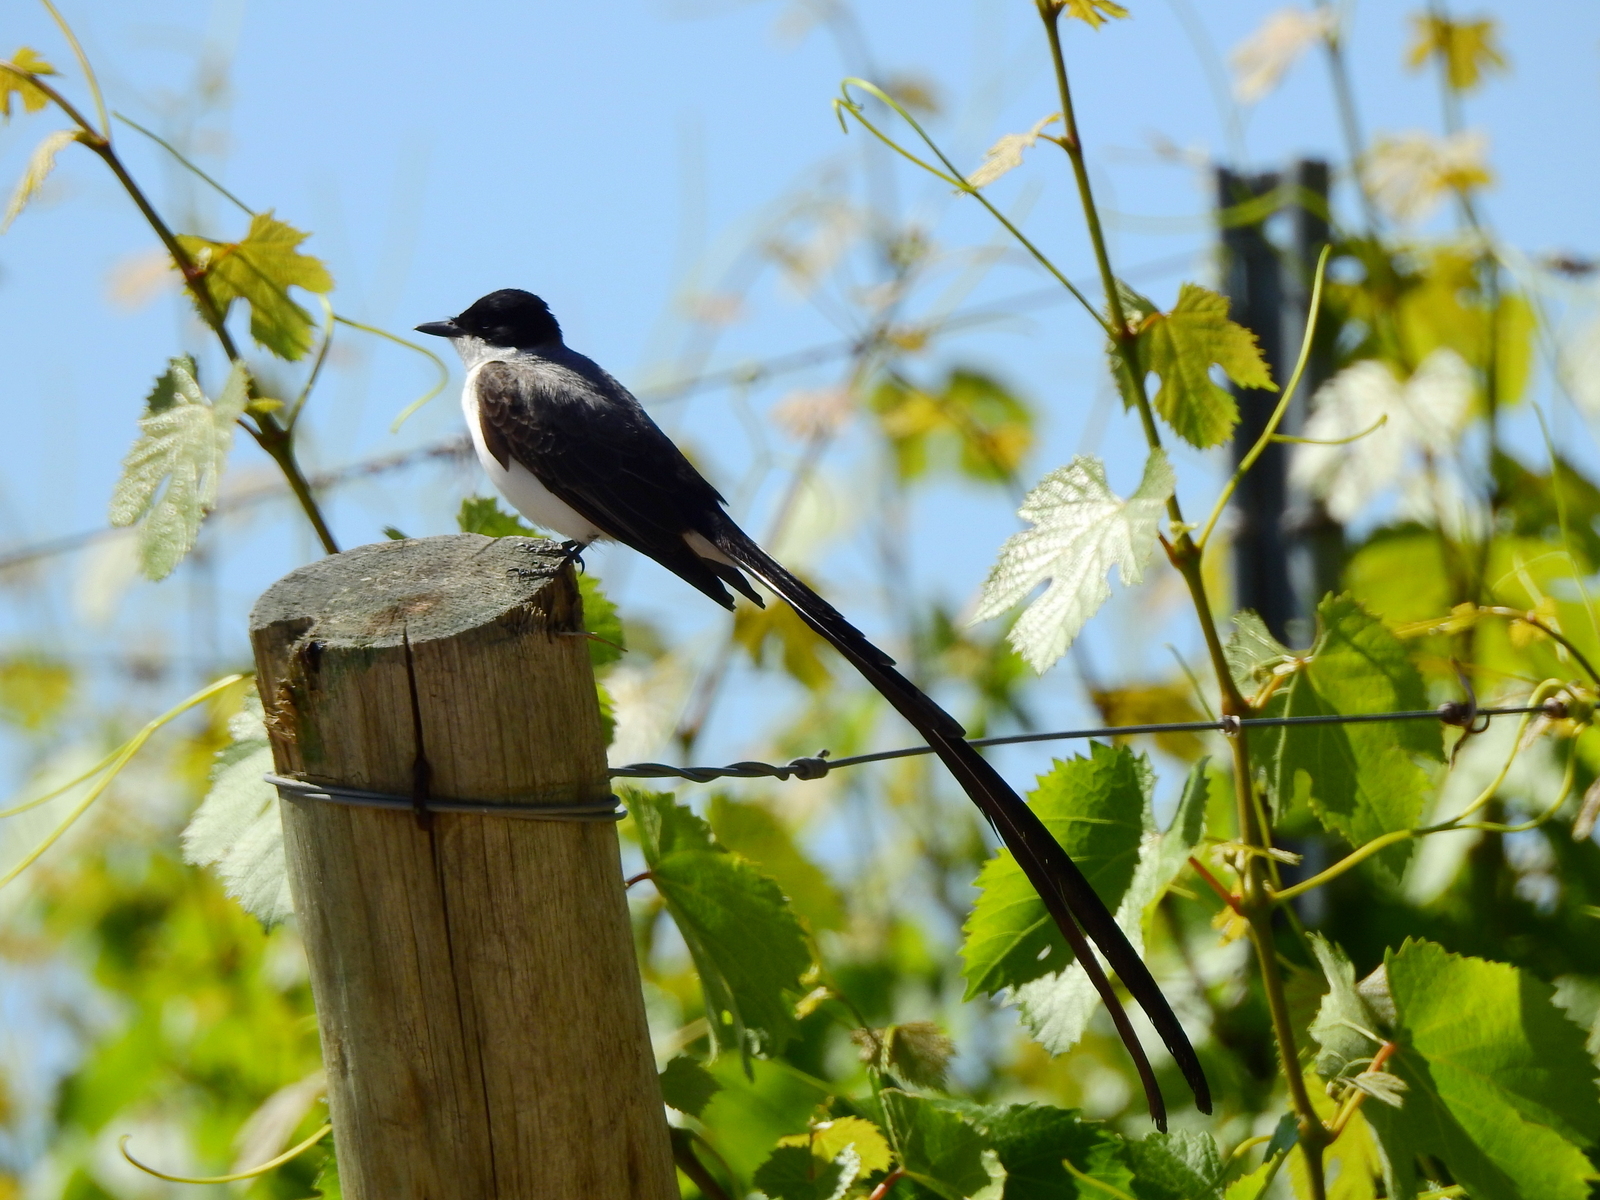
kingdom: Animalia
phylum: Chordata
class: Aves
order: Passeriformes
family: Tyrannidae
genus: Tyrannus
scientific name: Tyrannus savana
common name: Fork-tailed flycatcher
